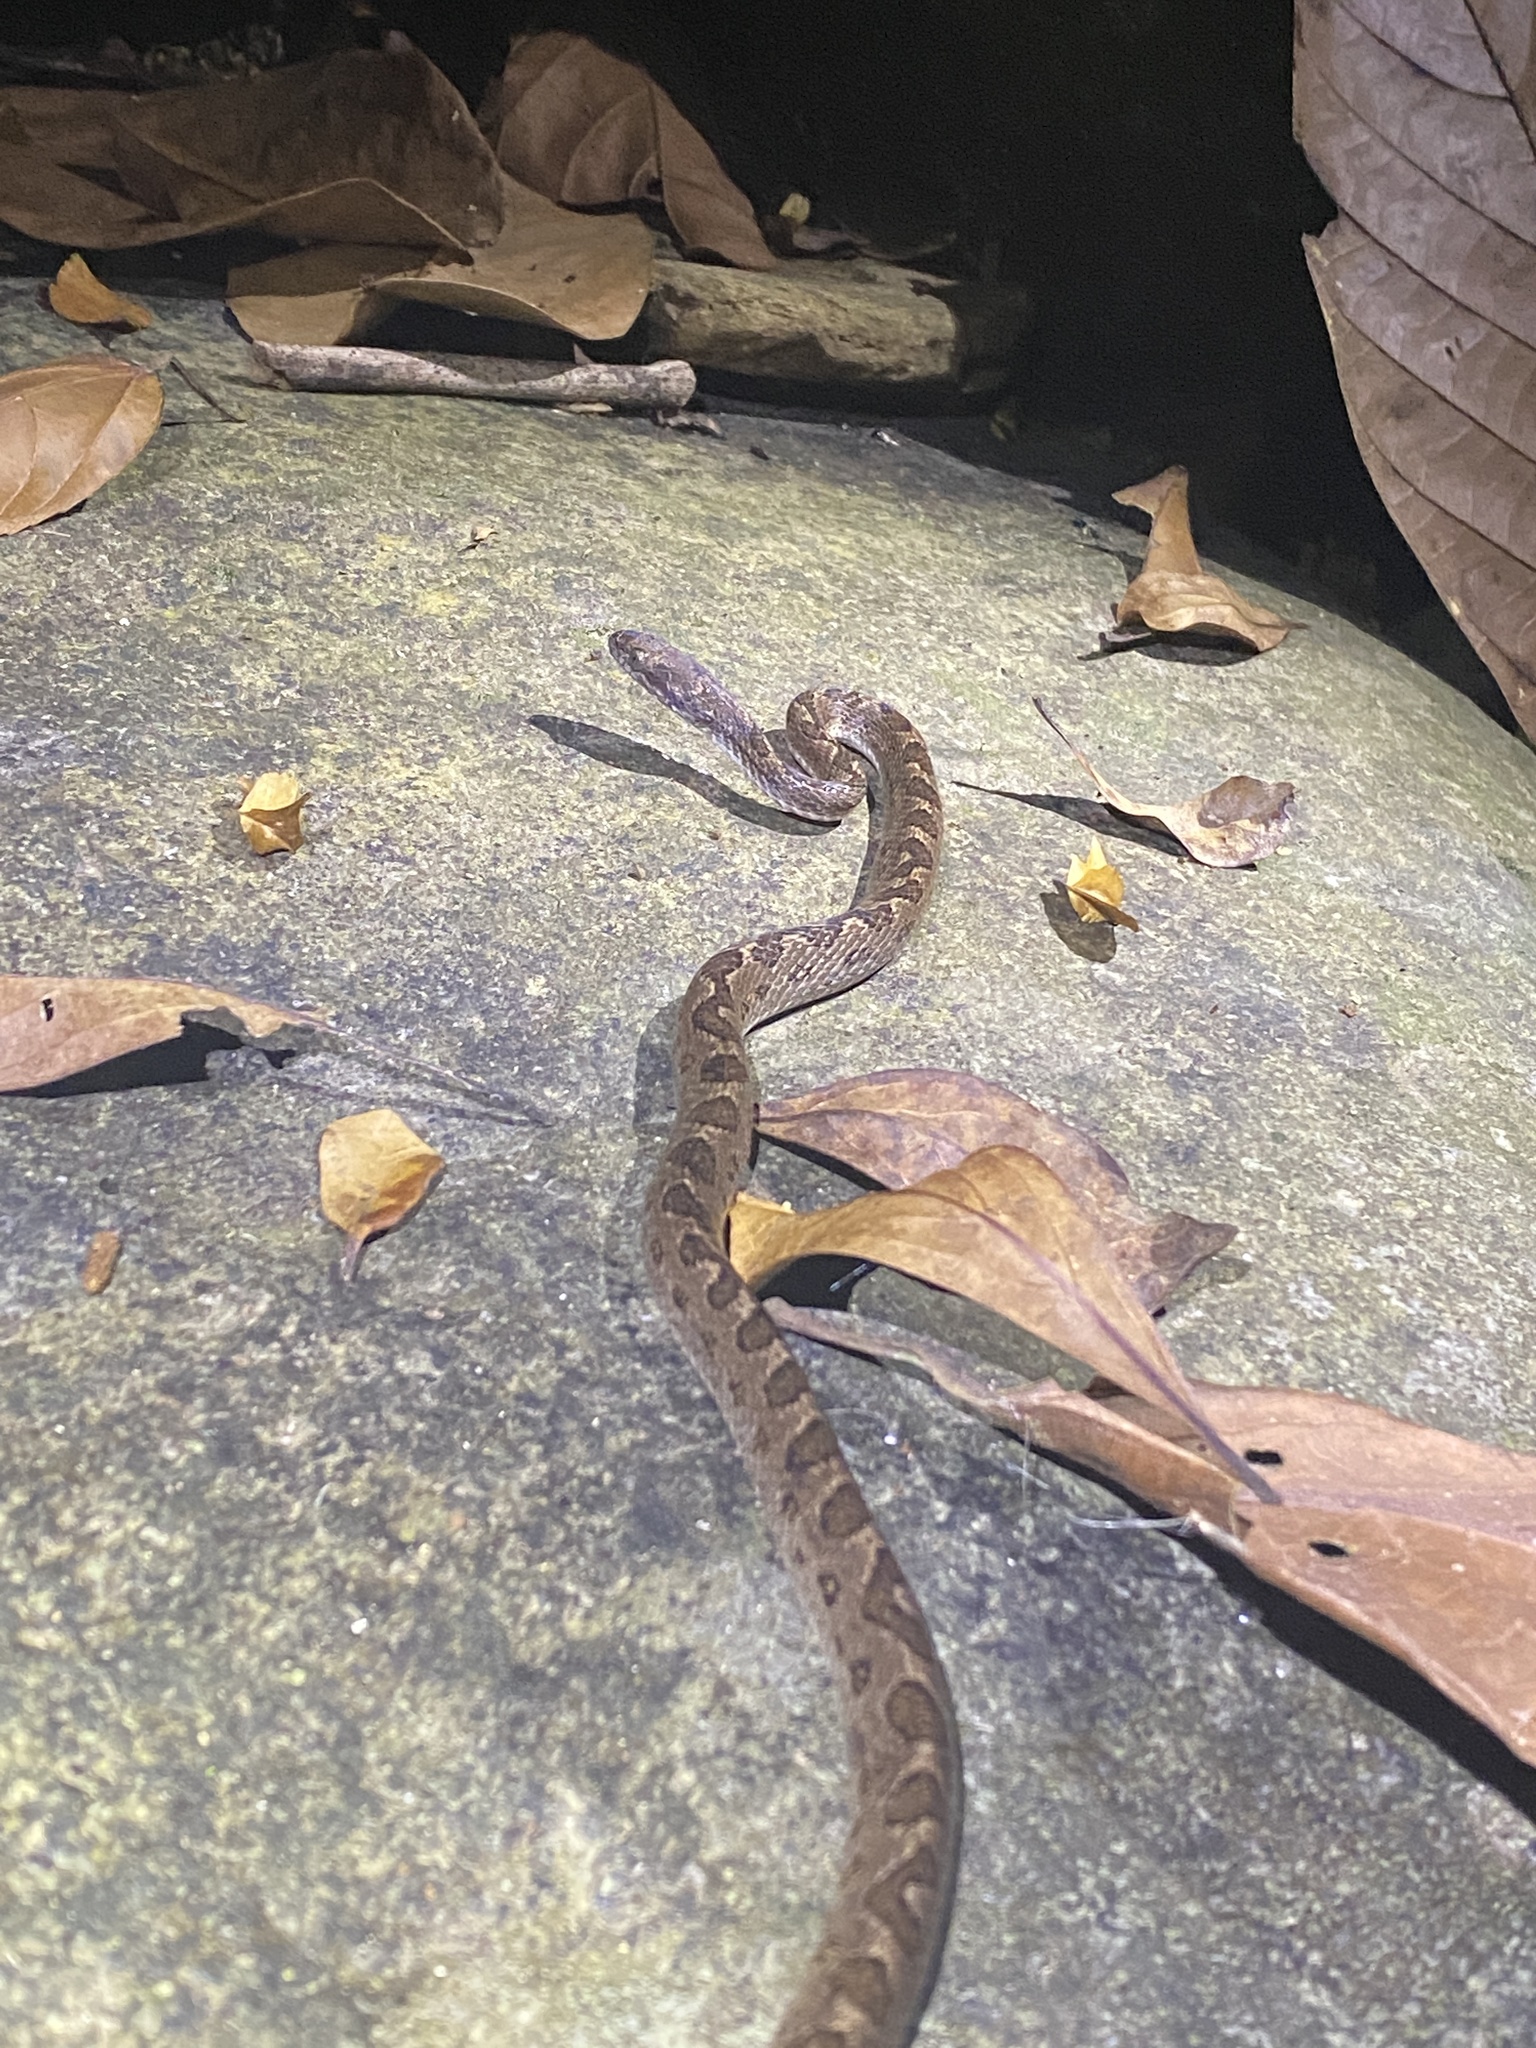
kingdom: Animalia
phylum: Chordata
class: Squamata
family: Colubridae
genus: Leptodeira
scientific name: Leptodeira ashmeadii
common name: Banded cat-eyed snake
